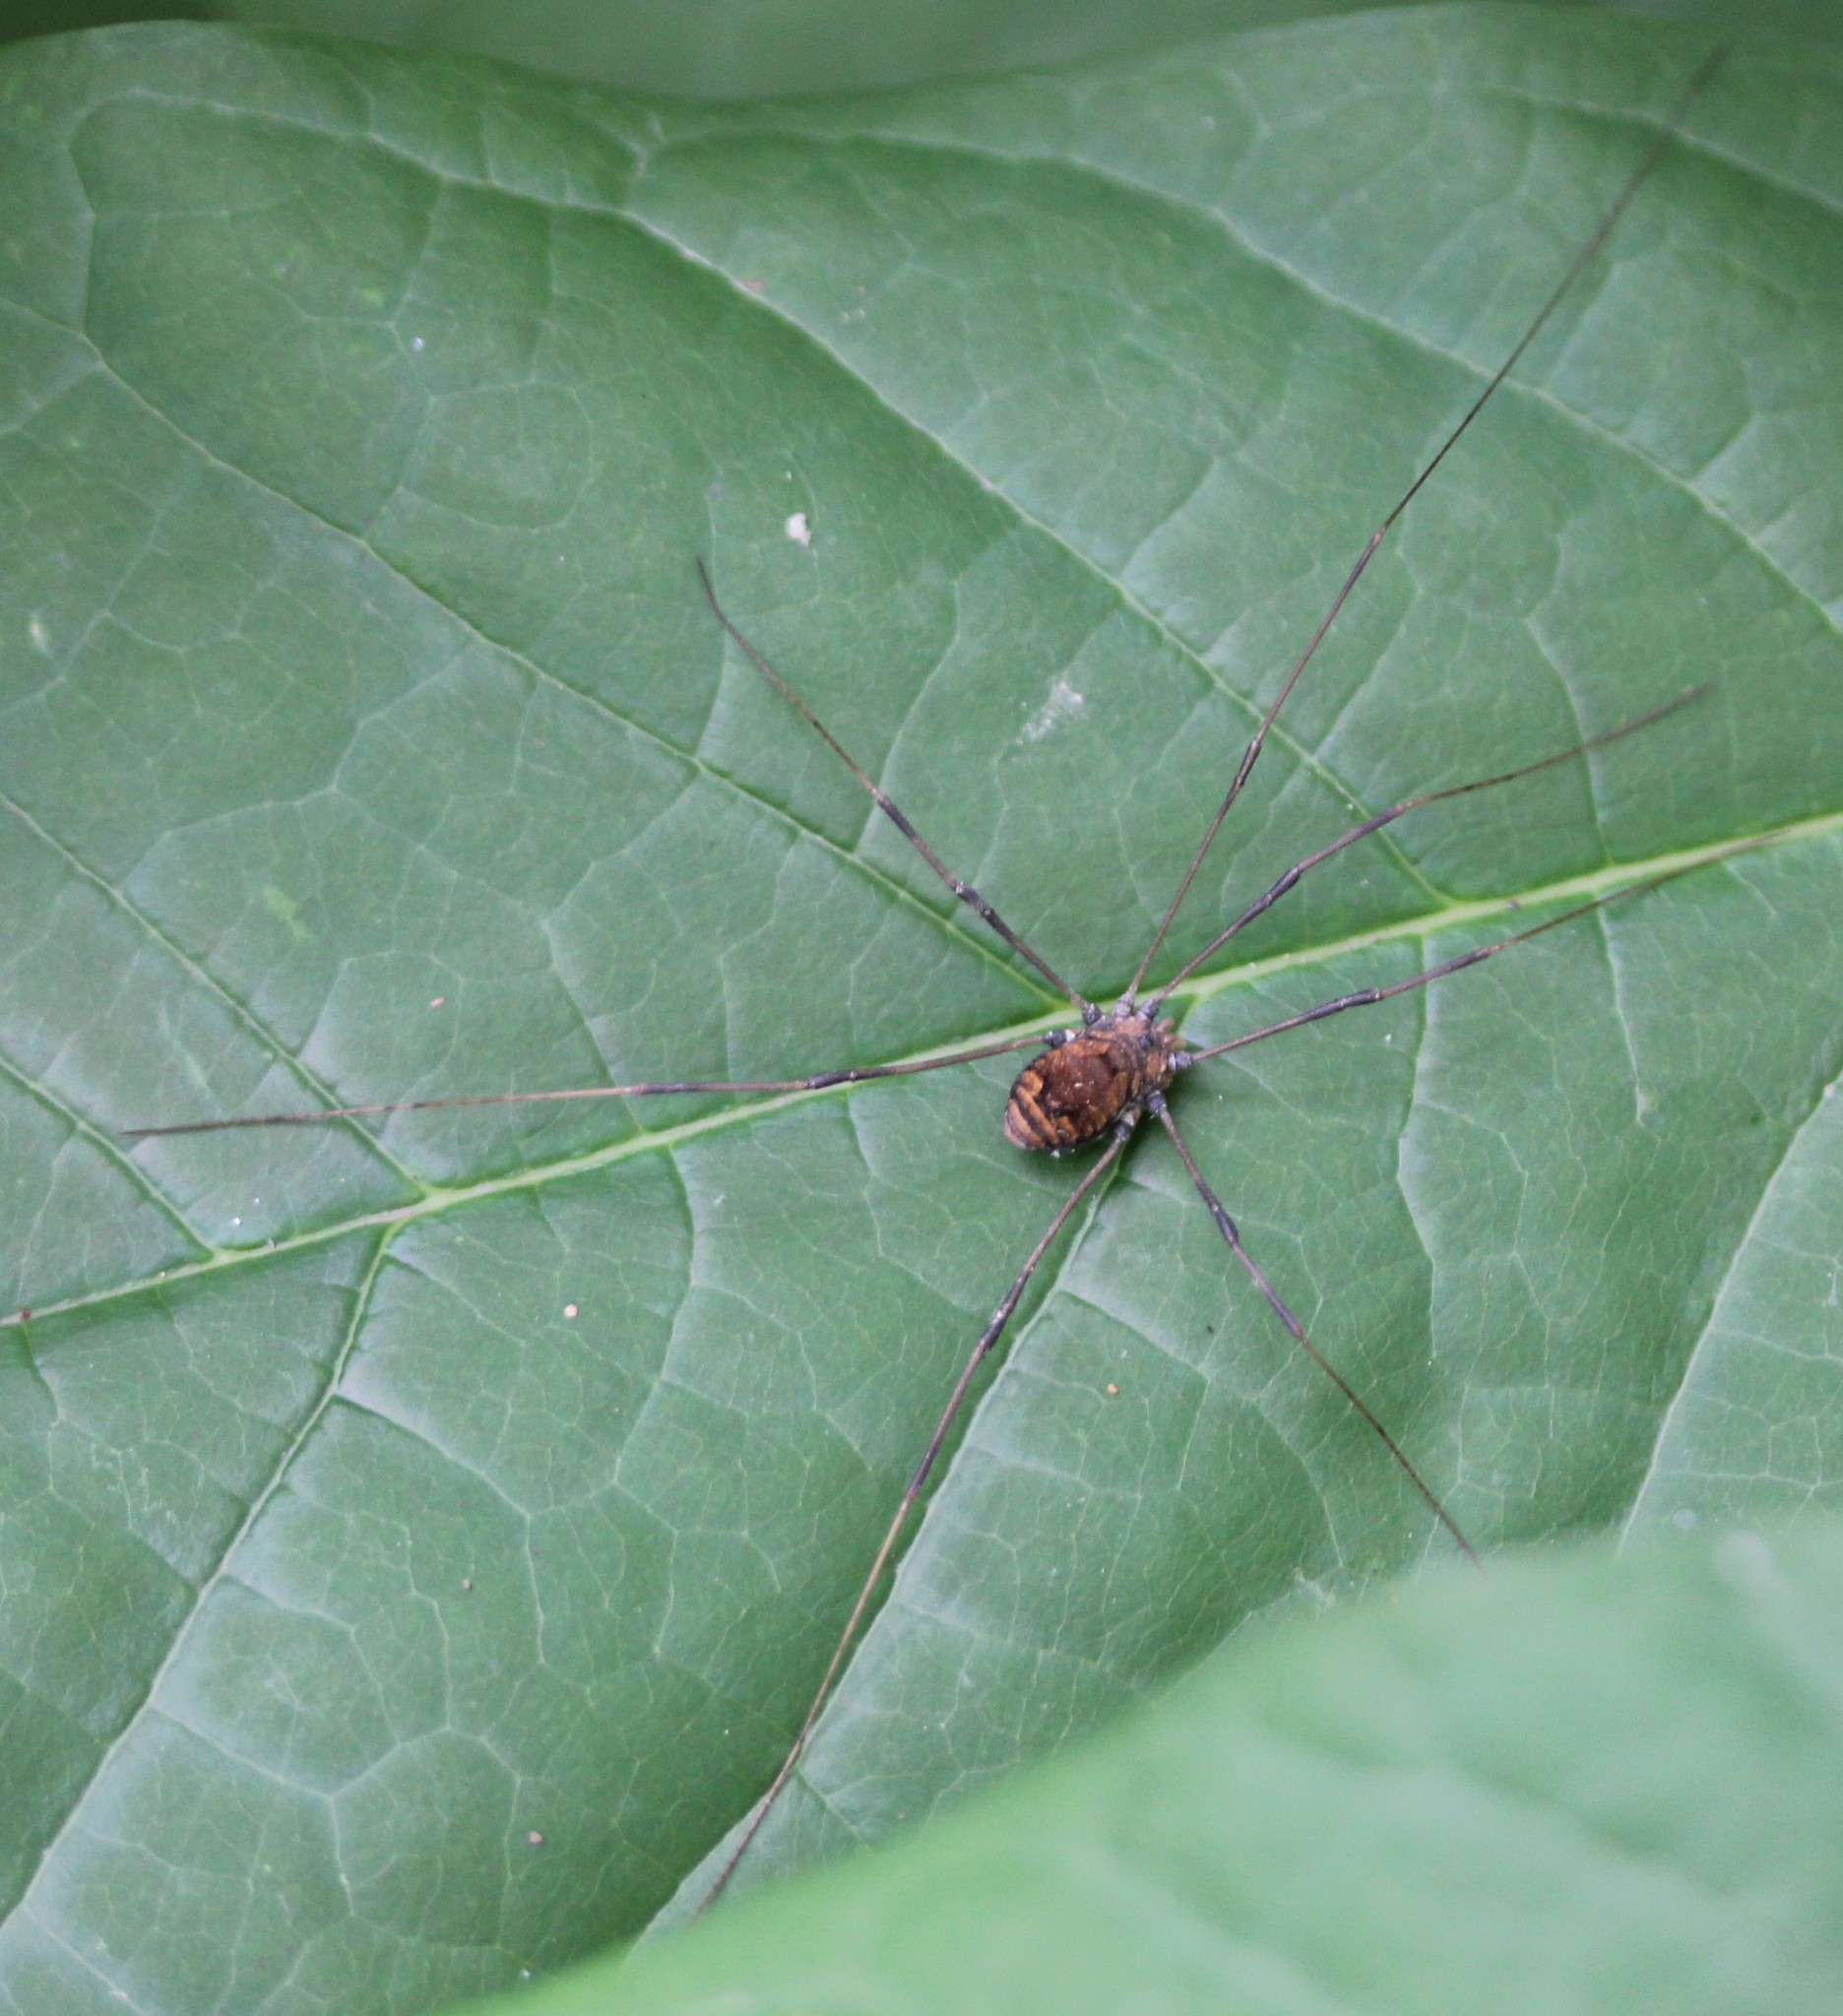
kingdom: Animalia
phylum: Arthropoda
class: Arachnida
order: Opiliones
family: Sclerosomatidae
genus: Leiobunum
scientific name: Leiobunum verrucosum
